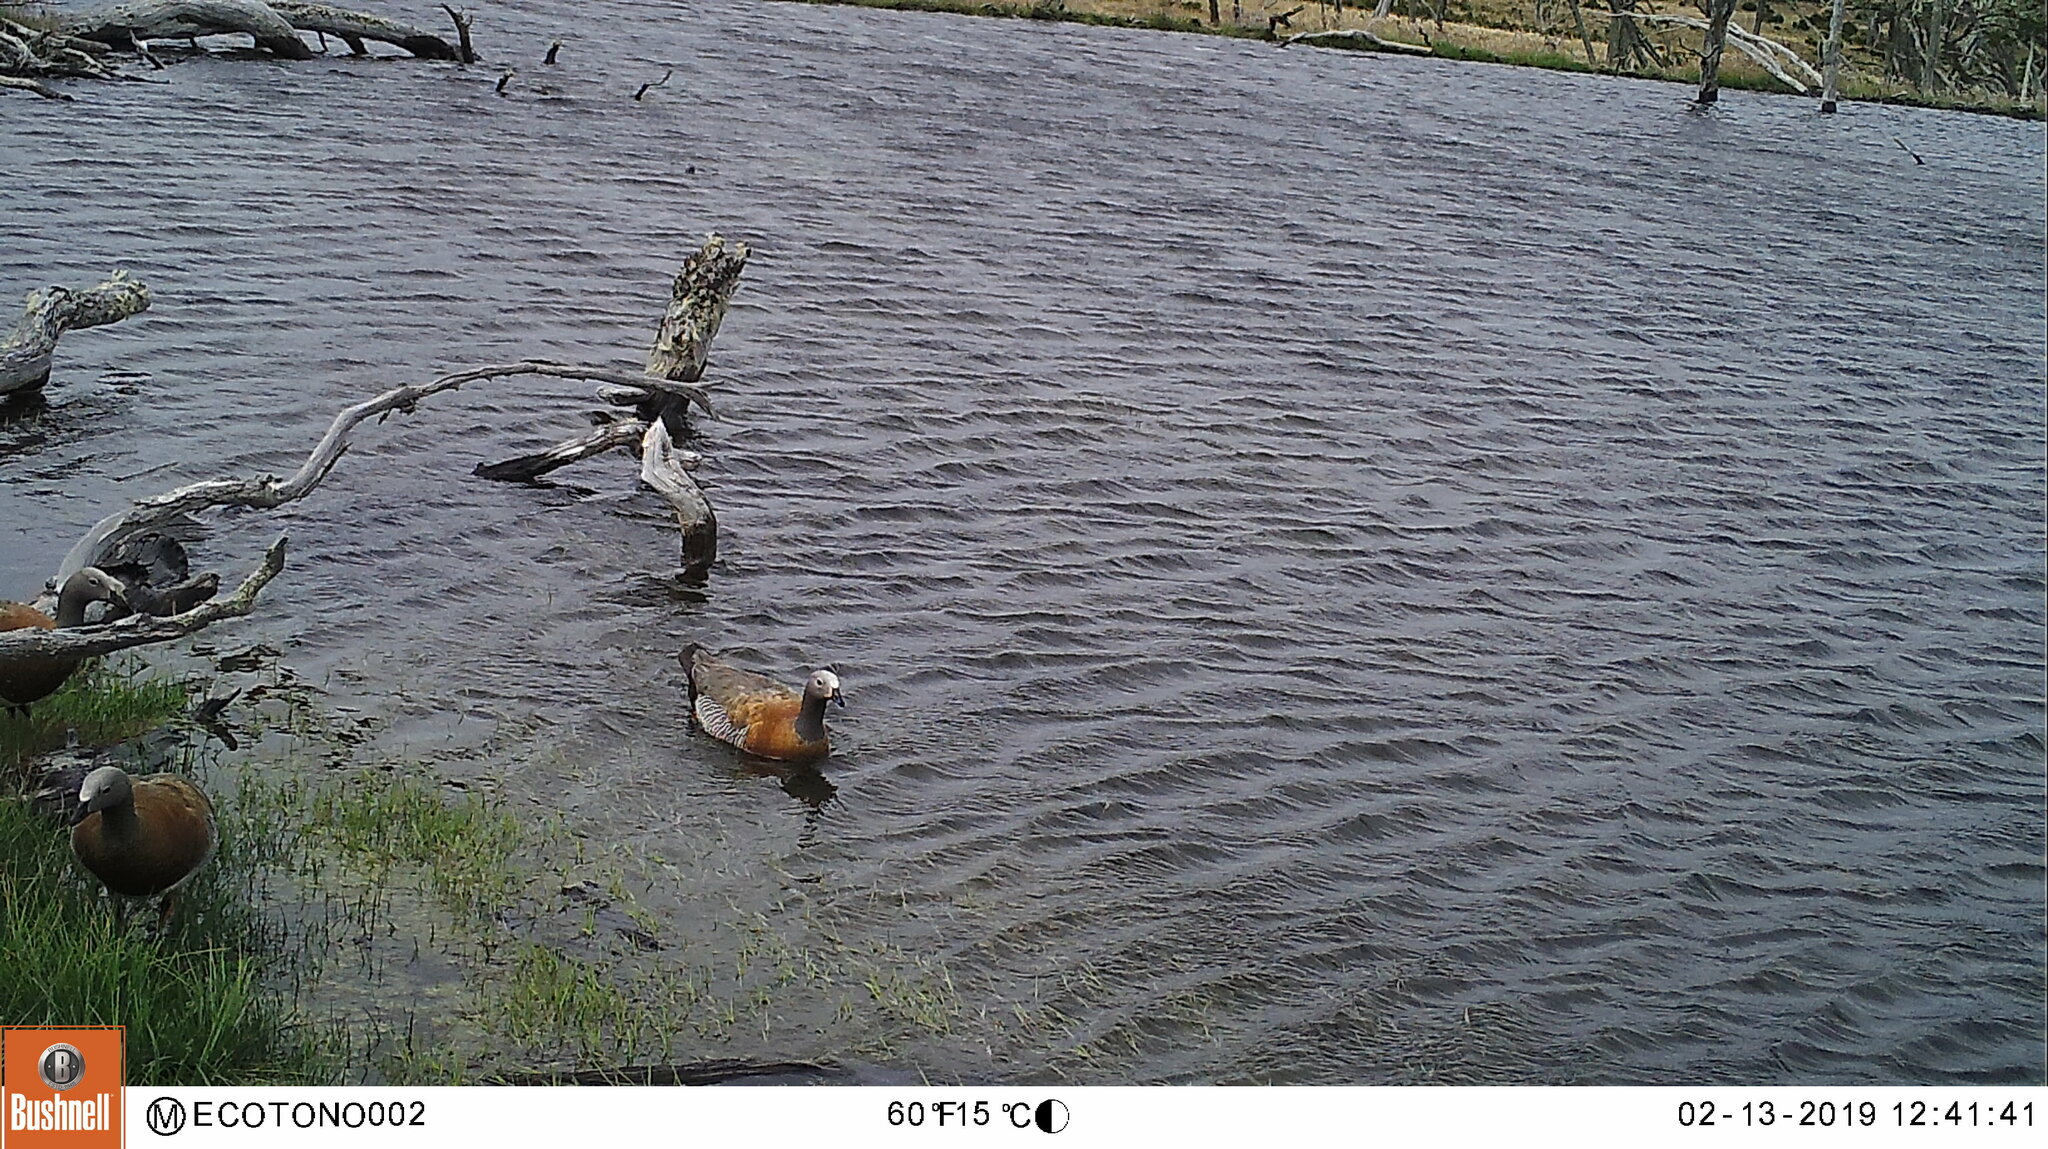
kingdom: Animalia
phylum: Chordata
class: Aves
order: Anseriformes
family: Anatidae
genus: Chloephaga
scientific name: Chloephaga poliocephala
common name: Ashy-headed goose
